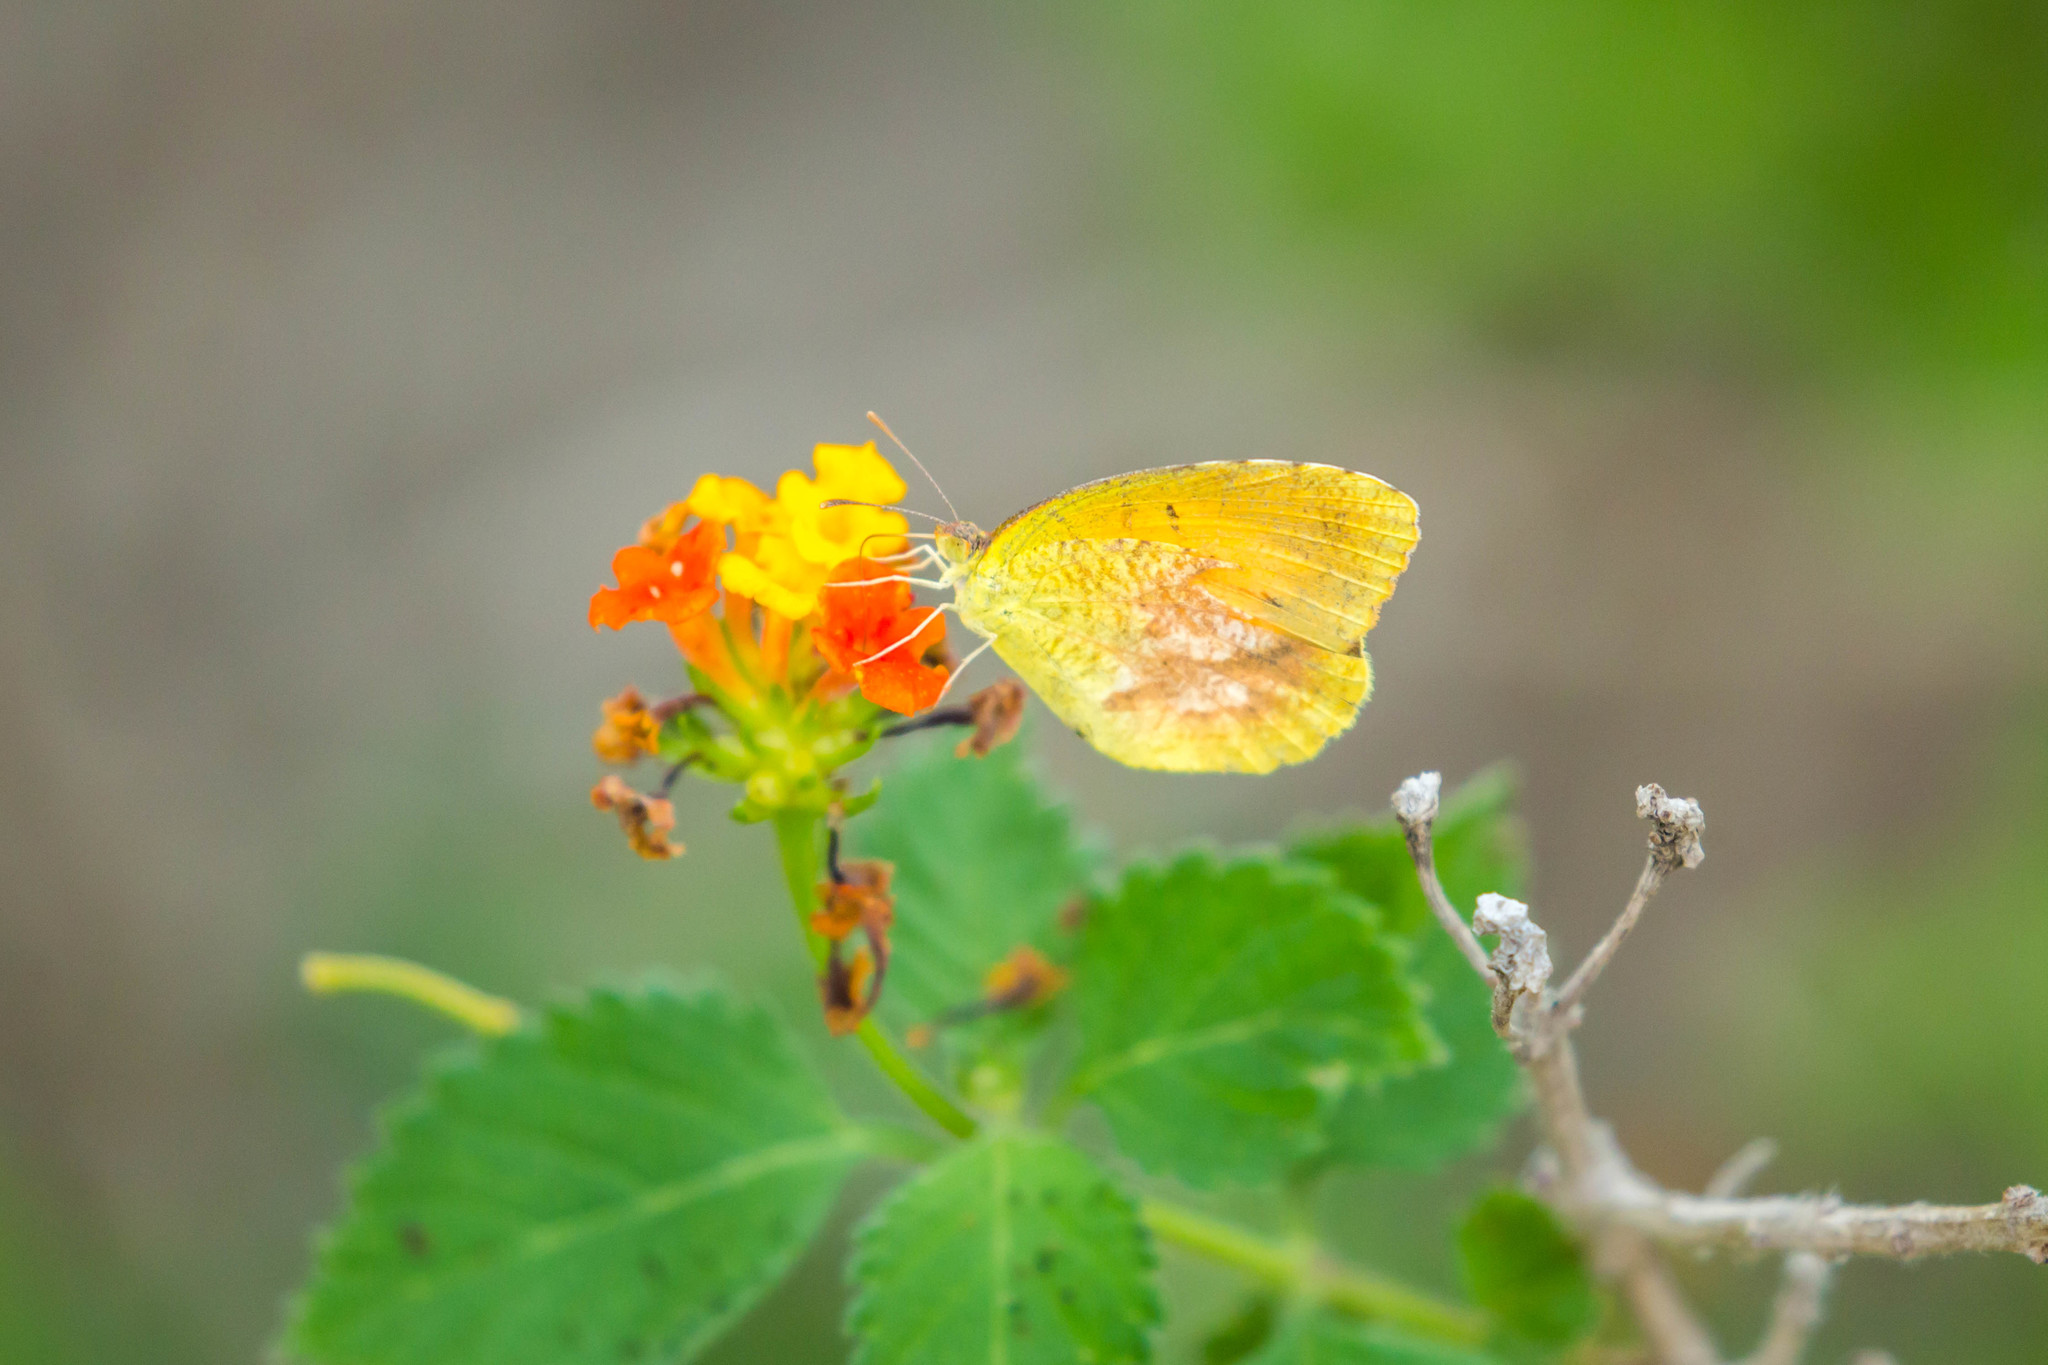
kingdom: Animalia
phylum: Arthropoda
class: Insecta
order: Lepidoptera
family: Pieridae
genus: Abaeis
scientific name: Abaeis nicippe
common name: Sleepy orange
